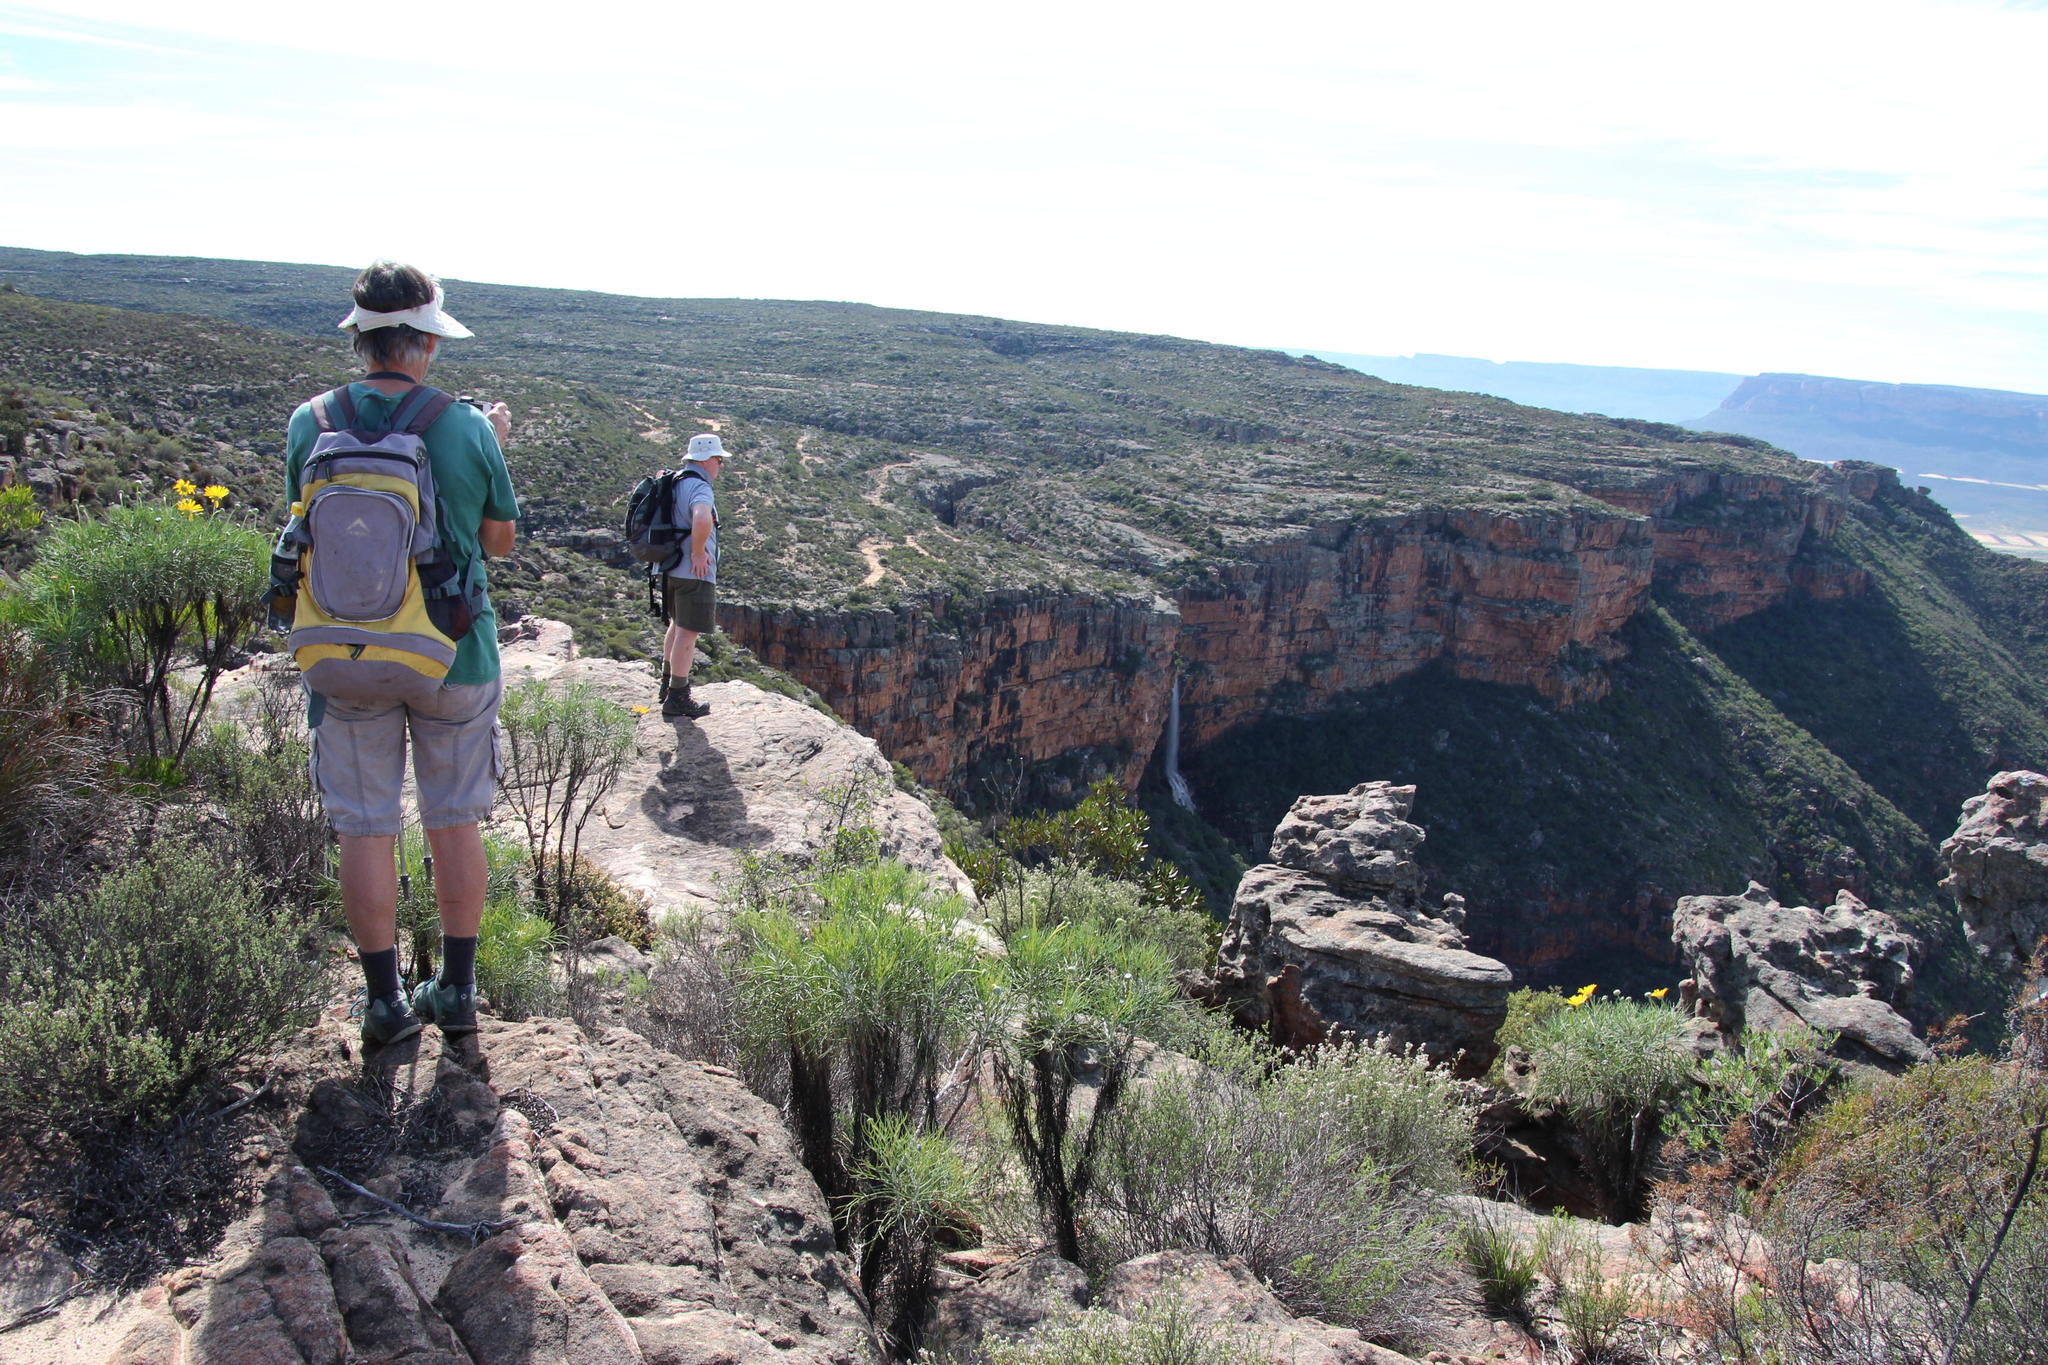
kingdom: Plantae
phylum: Tracheophyta
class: Magnoliopsida
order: Asterales
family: Asteraceae
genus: Euryops
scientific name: Euryops speciosissimus
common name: Clanwilliam daisy
